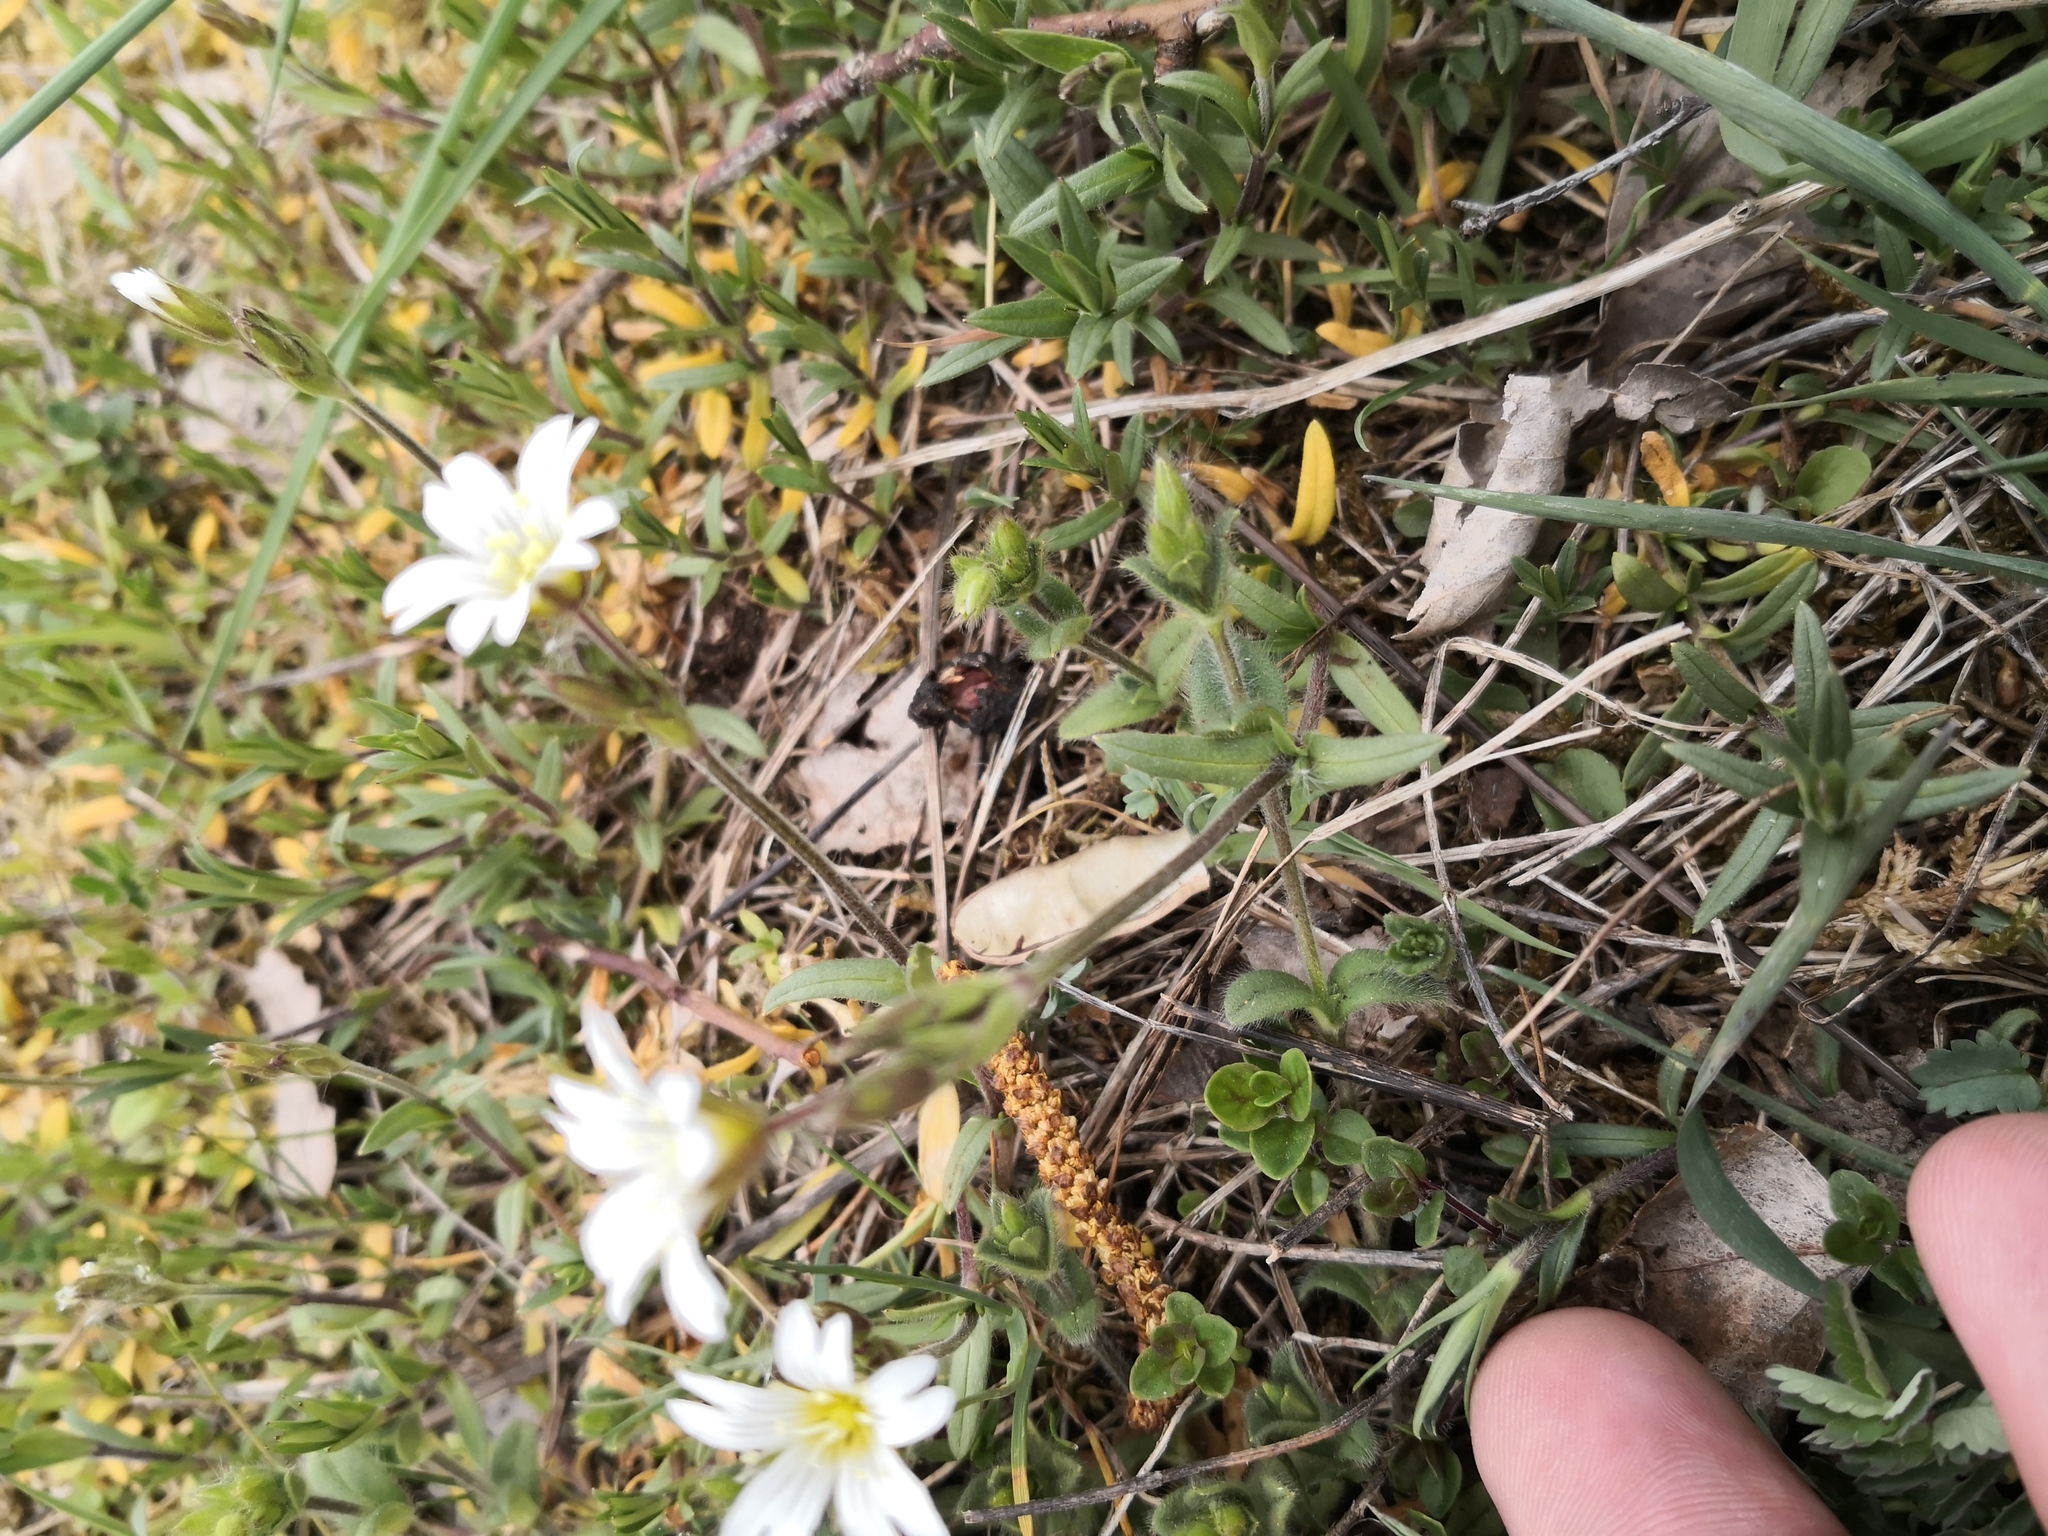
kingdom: Plantae
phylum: Tracheophyta
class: Magnoliopsida
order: Caryophyllales
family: Caryophyllaceae
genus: Cerastium
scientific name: Cerastium arvense
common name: Field mouse-ear
